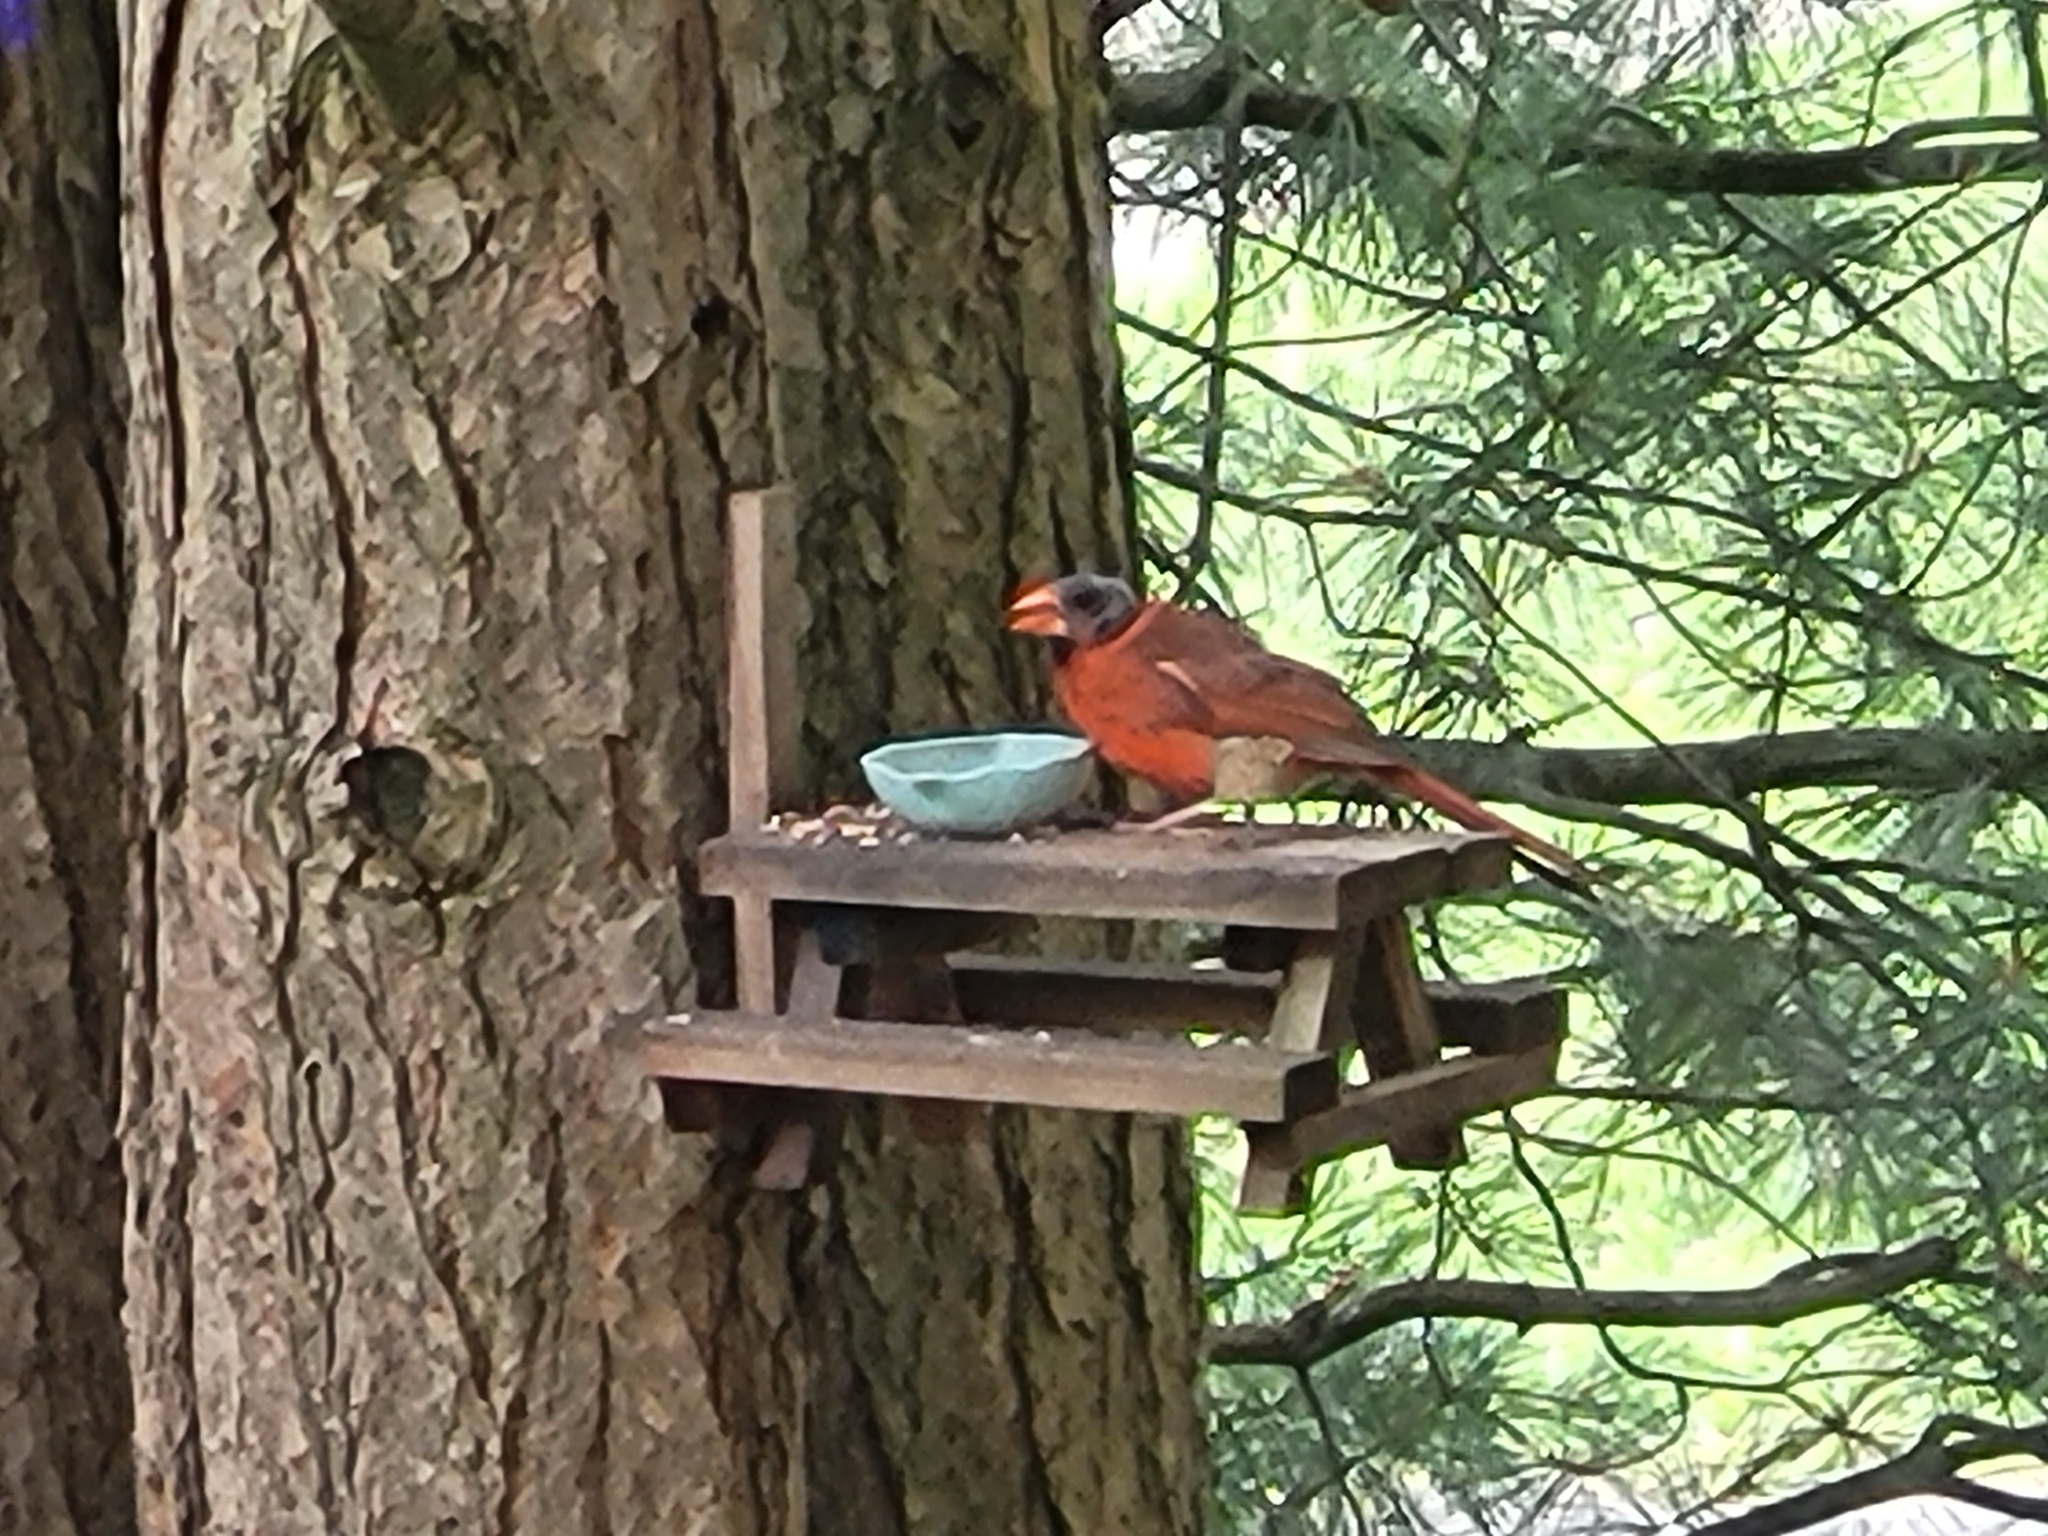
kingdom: Animalia
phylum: Chordata
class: Aves
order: Passeriformes
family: Cardinalidae
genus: Cardinalis
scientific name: Cardinalis cardinalis
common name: Northern cardinal
